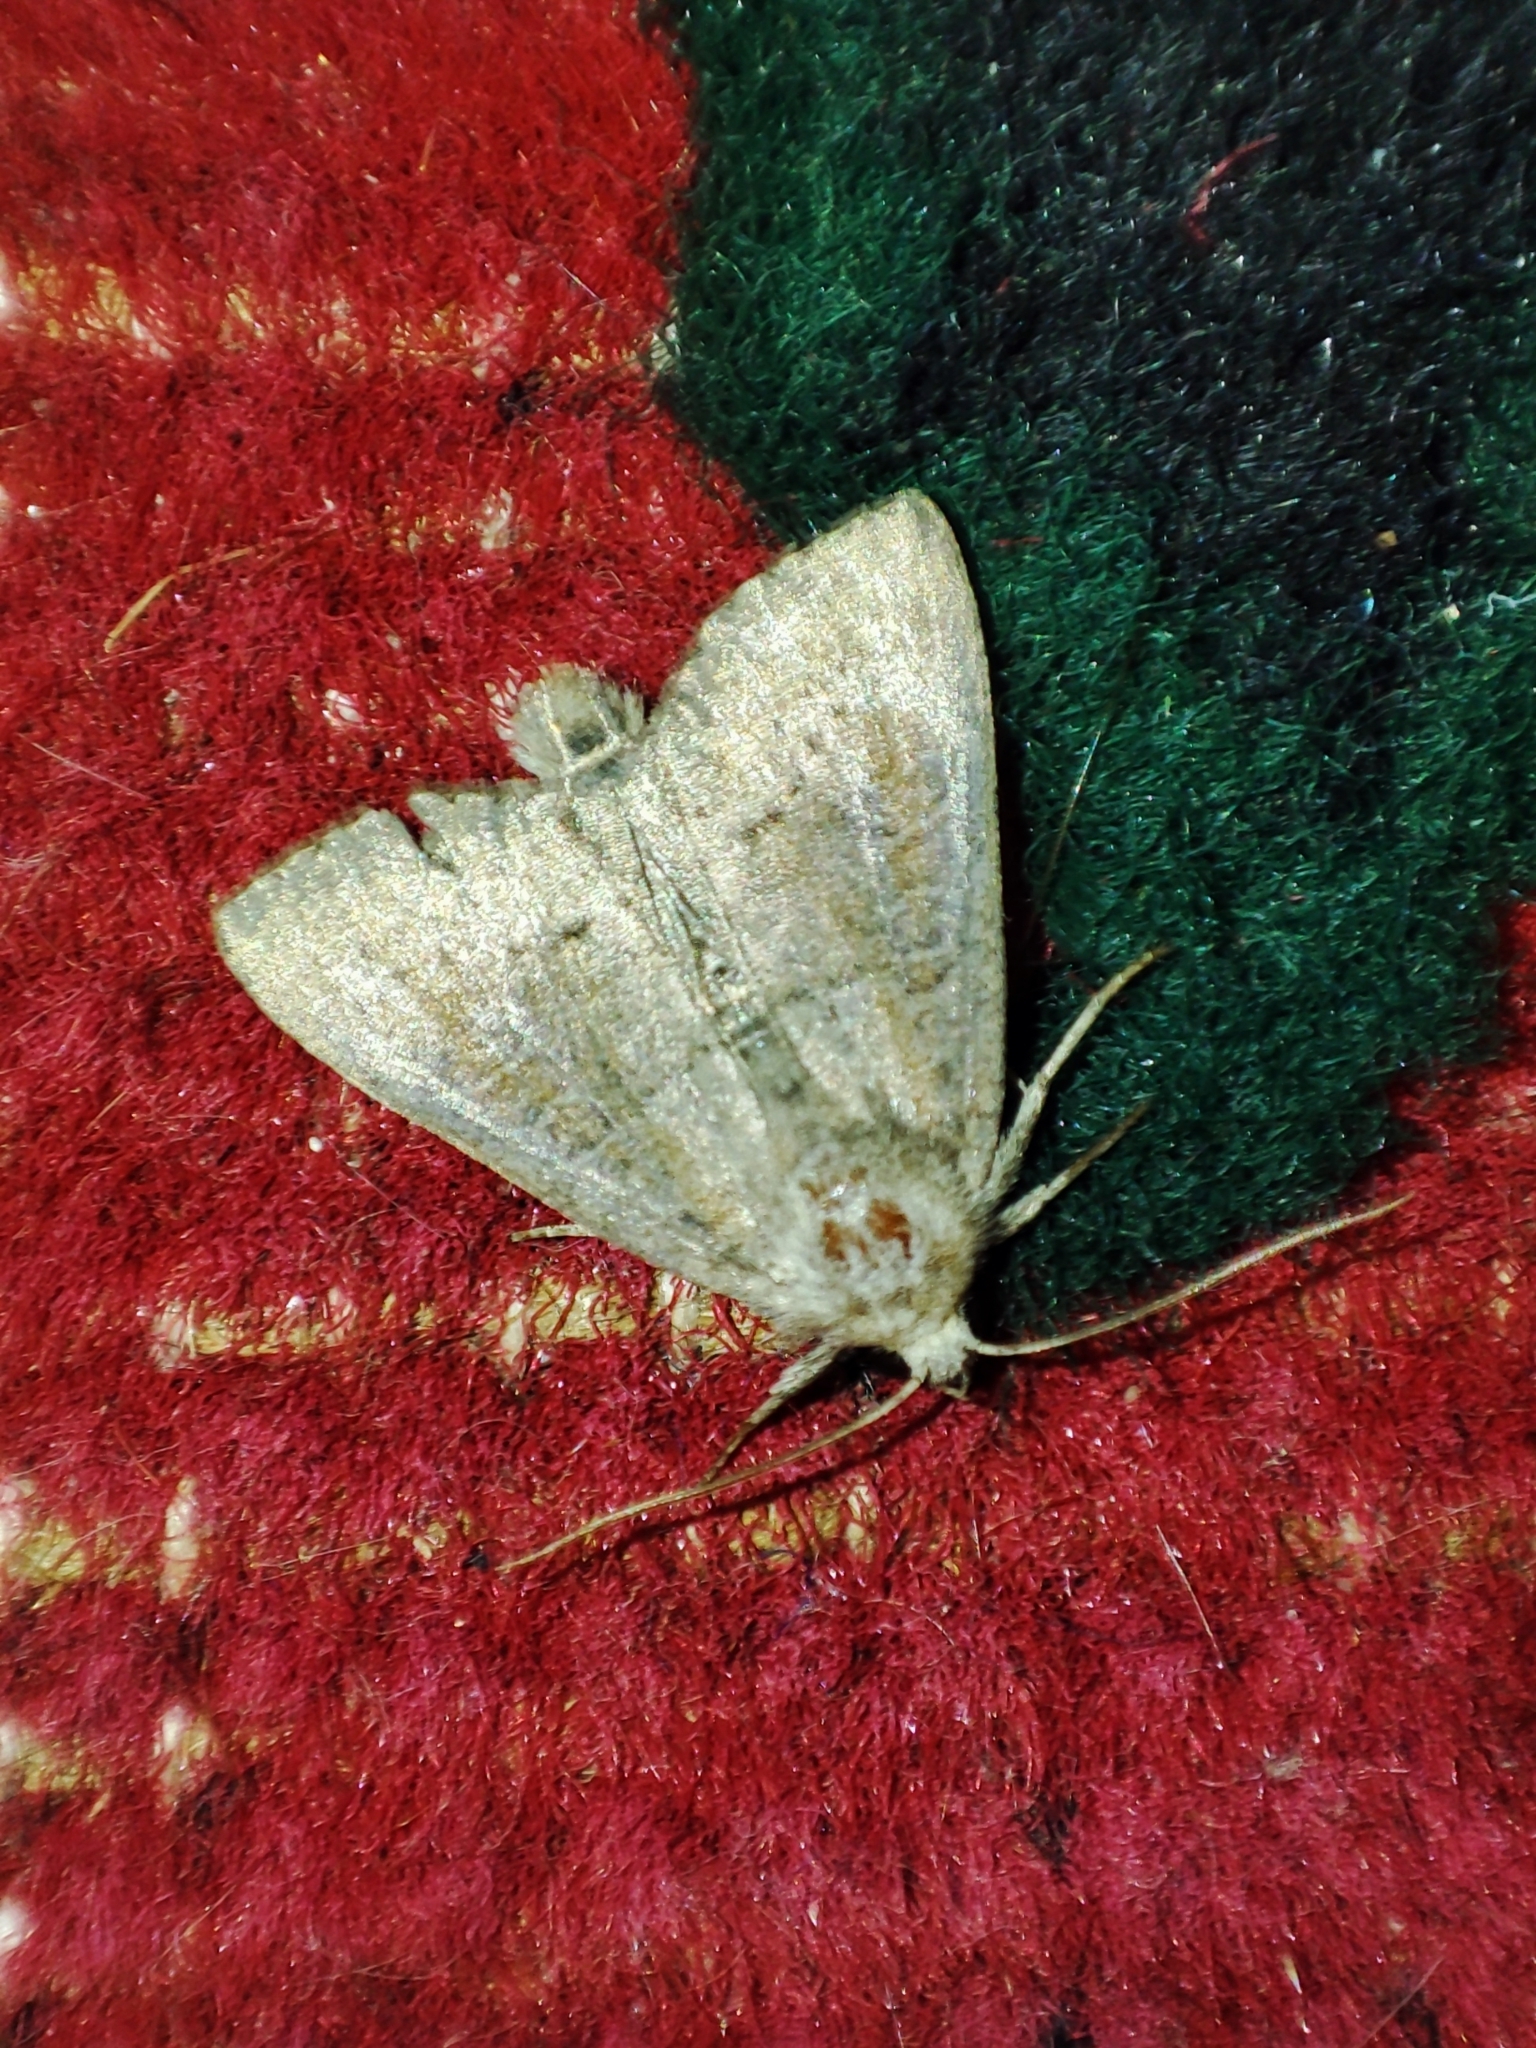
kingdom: Animalia
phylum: Arthropoda
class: Insecta
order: Lepidoptera
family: Noctuidae
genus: Parastichtis
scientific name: Parastichtis suspecta
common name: Suspected
